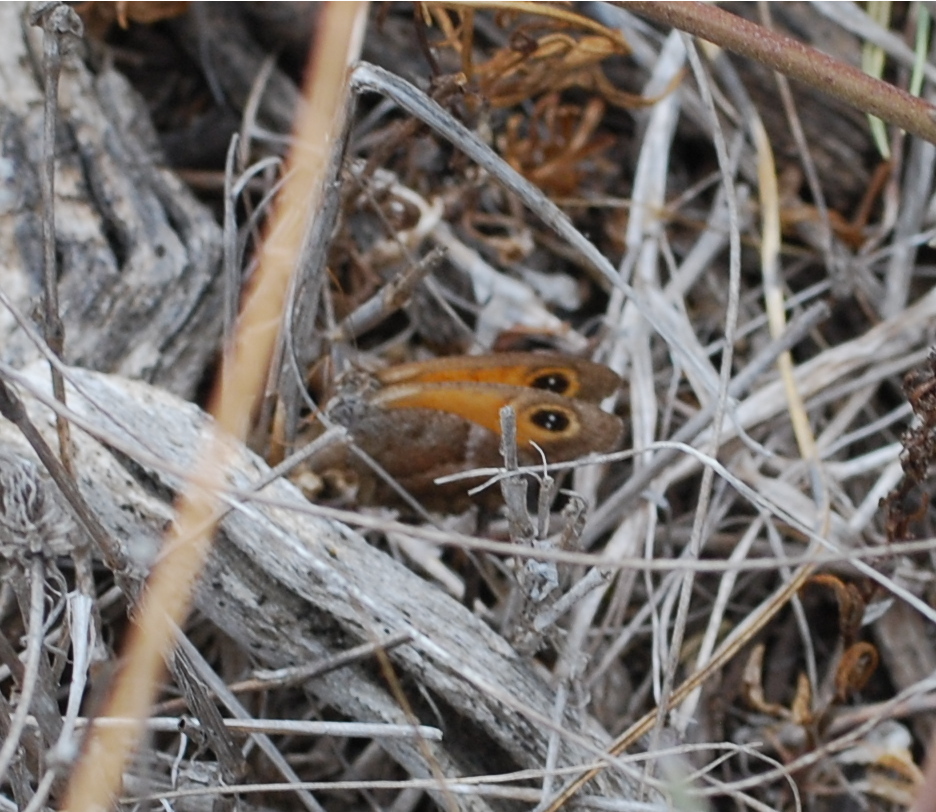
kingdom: Animalia
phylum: Arthropoda
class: Insecta
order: Lepidoptera
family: Nymphalidae
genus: Pyronia
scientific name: Pyronia cecilia
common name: Southern gatekeeper
